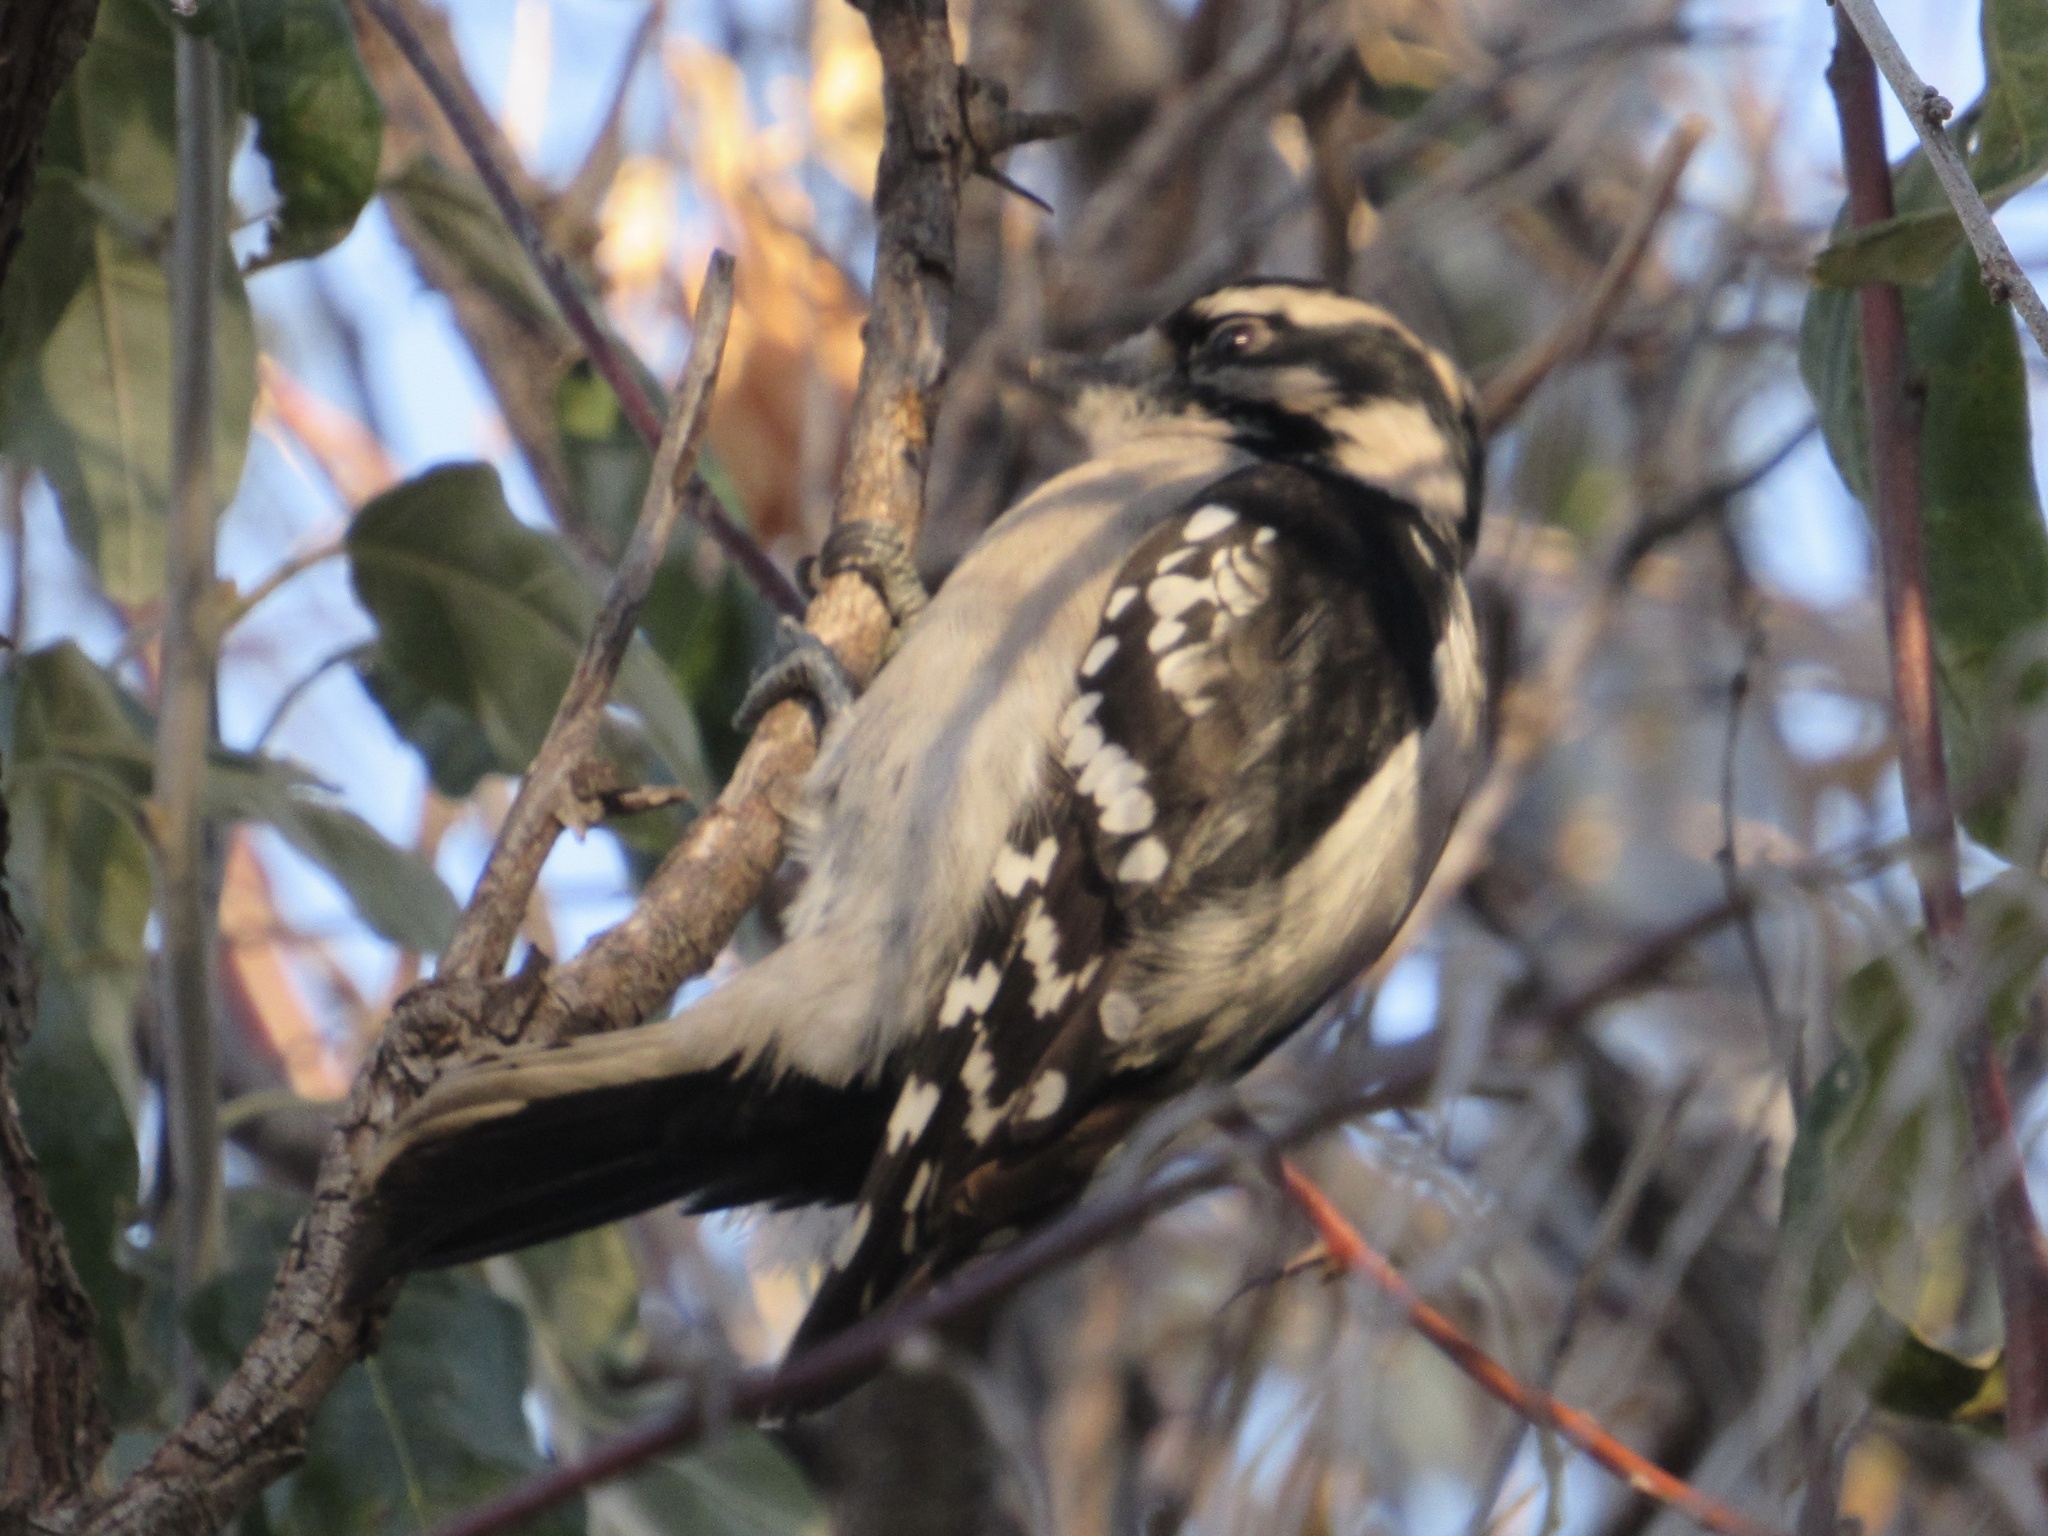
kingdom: Animalia
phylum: Chordata
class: Aves
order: Piciformes
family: Picidae
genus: Dryobates
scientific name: Dryobates pubescens
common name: Downy woodpecker
